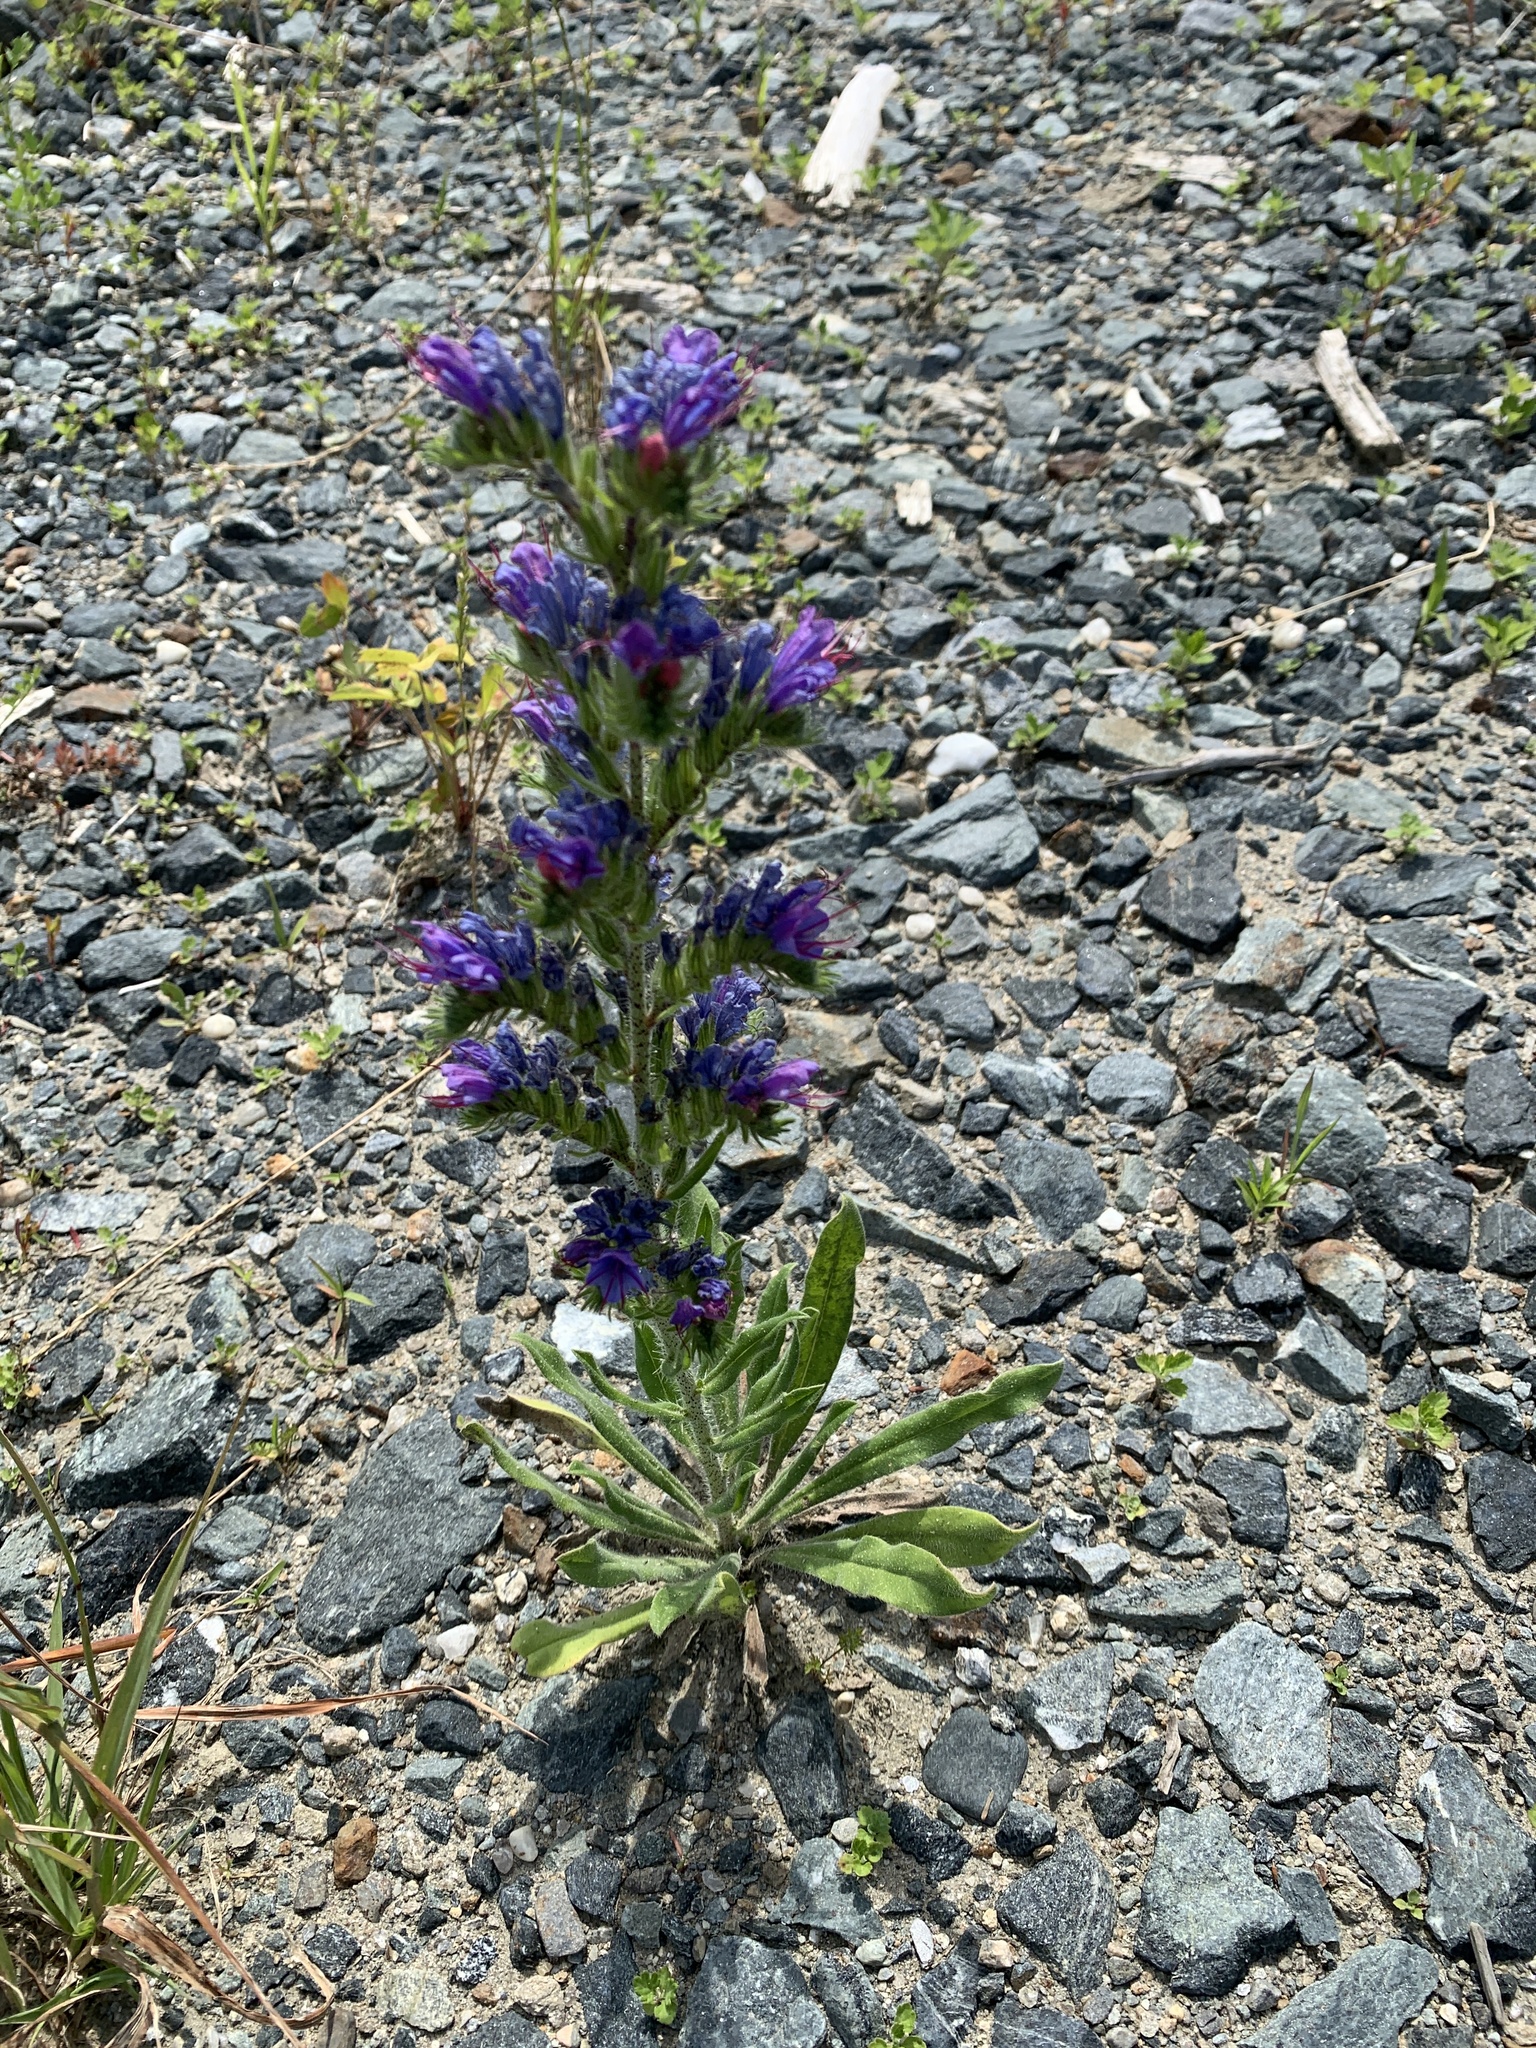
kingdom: Plantae
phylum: Tracheophyta
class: Magnoliopsida
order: Boraginales
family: Boraginaceae
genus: Echium
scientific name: Echium vulgare
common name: Common viper's bugloss
